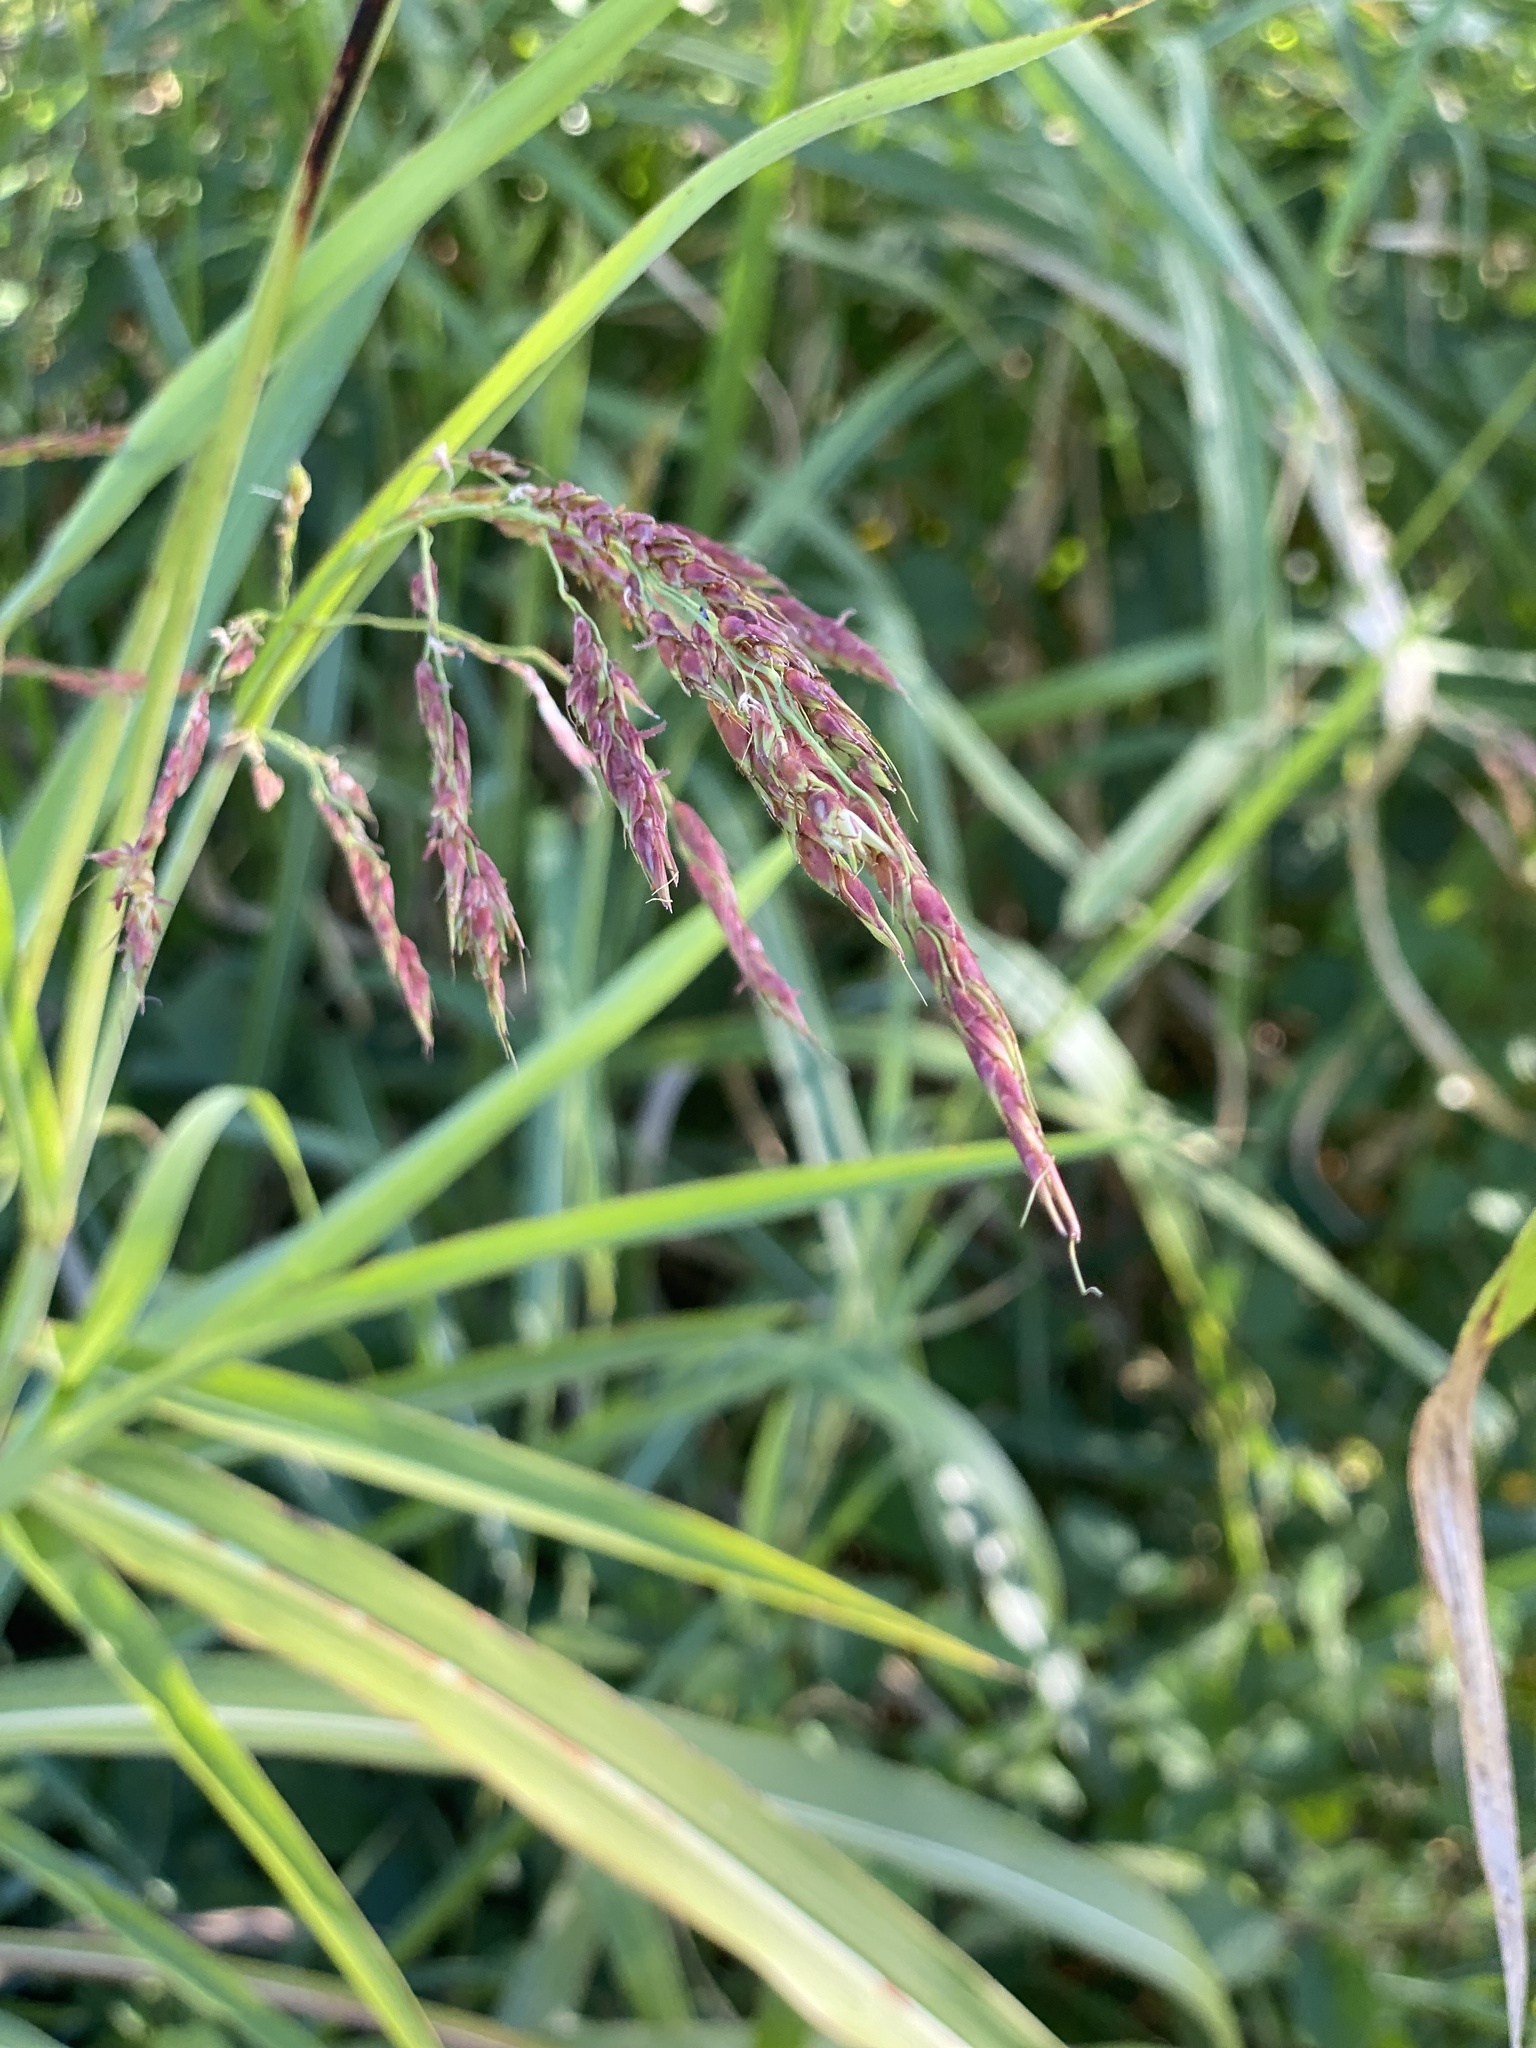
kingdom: Plantae
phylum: Tracheophyta
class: Liliopsida
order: Poales
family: Poaceae
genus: Sorghum
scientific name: Sorghum halepense
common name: Johnson-grass
